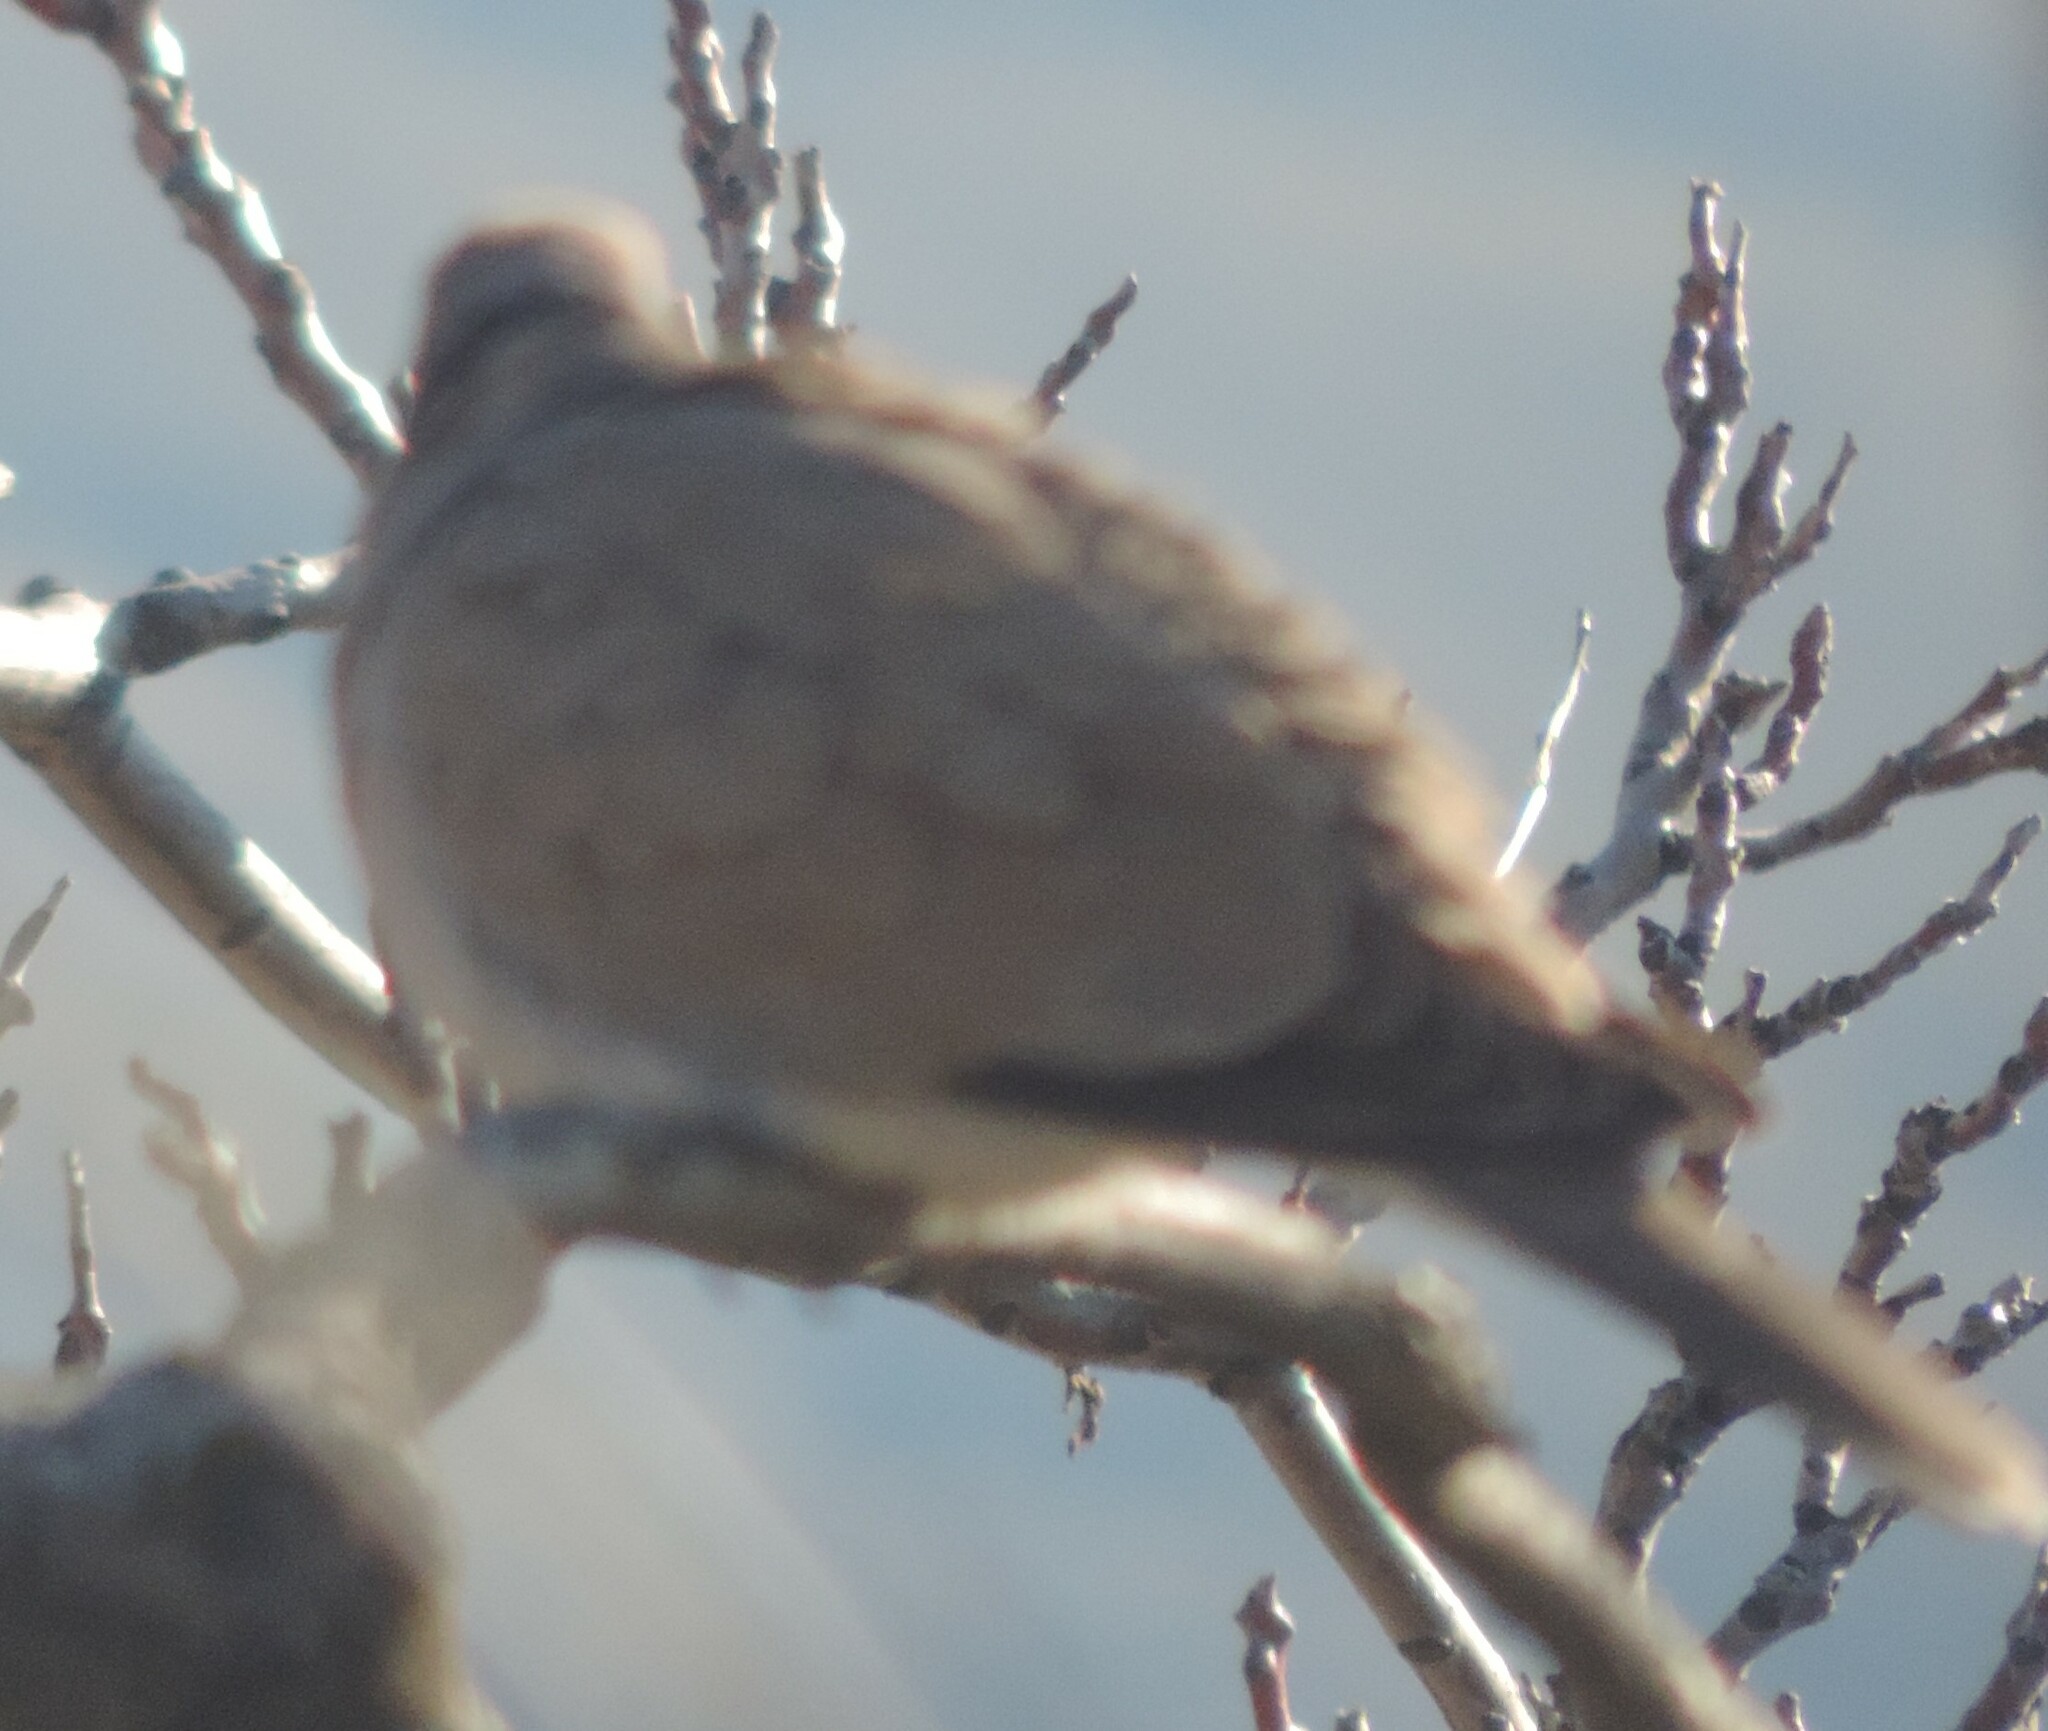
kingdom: Animalia
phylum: Chordata
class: Aves
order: Columbiformes
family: Columbidae
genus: Streptopelia
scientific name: Streptopelia decaocto
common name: Eurasian collared dove
